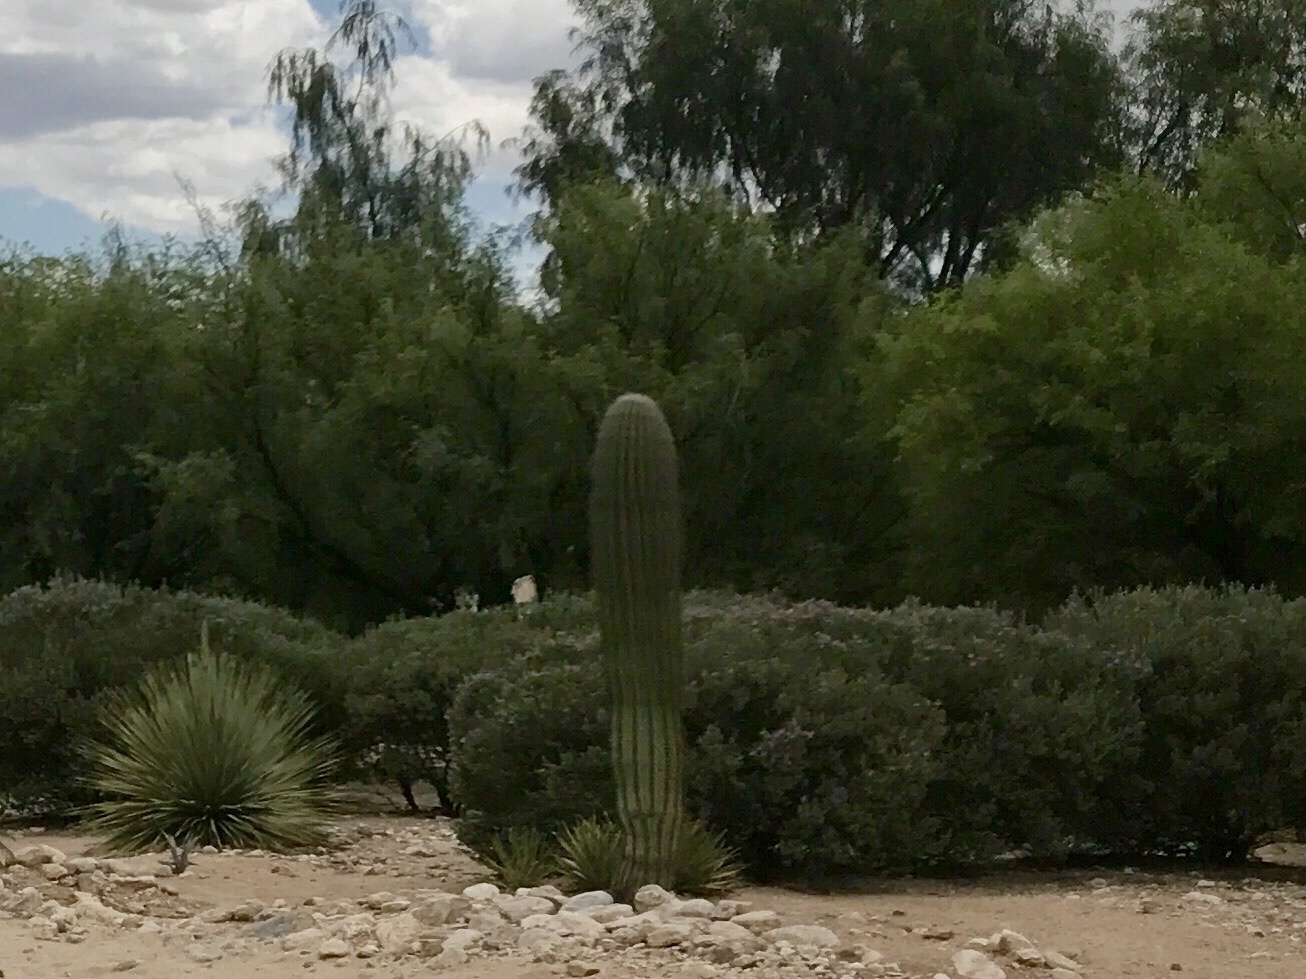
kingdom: Plantae
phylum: Tracheophyta
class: Magnoliopsida
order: Caryophyllales
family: Cactaceae
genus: Carnegiea
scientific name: Carnegiea gigantea
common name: Saguaro
